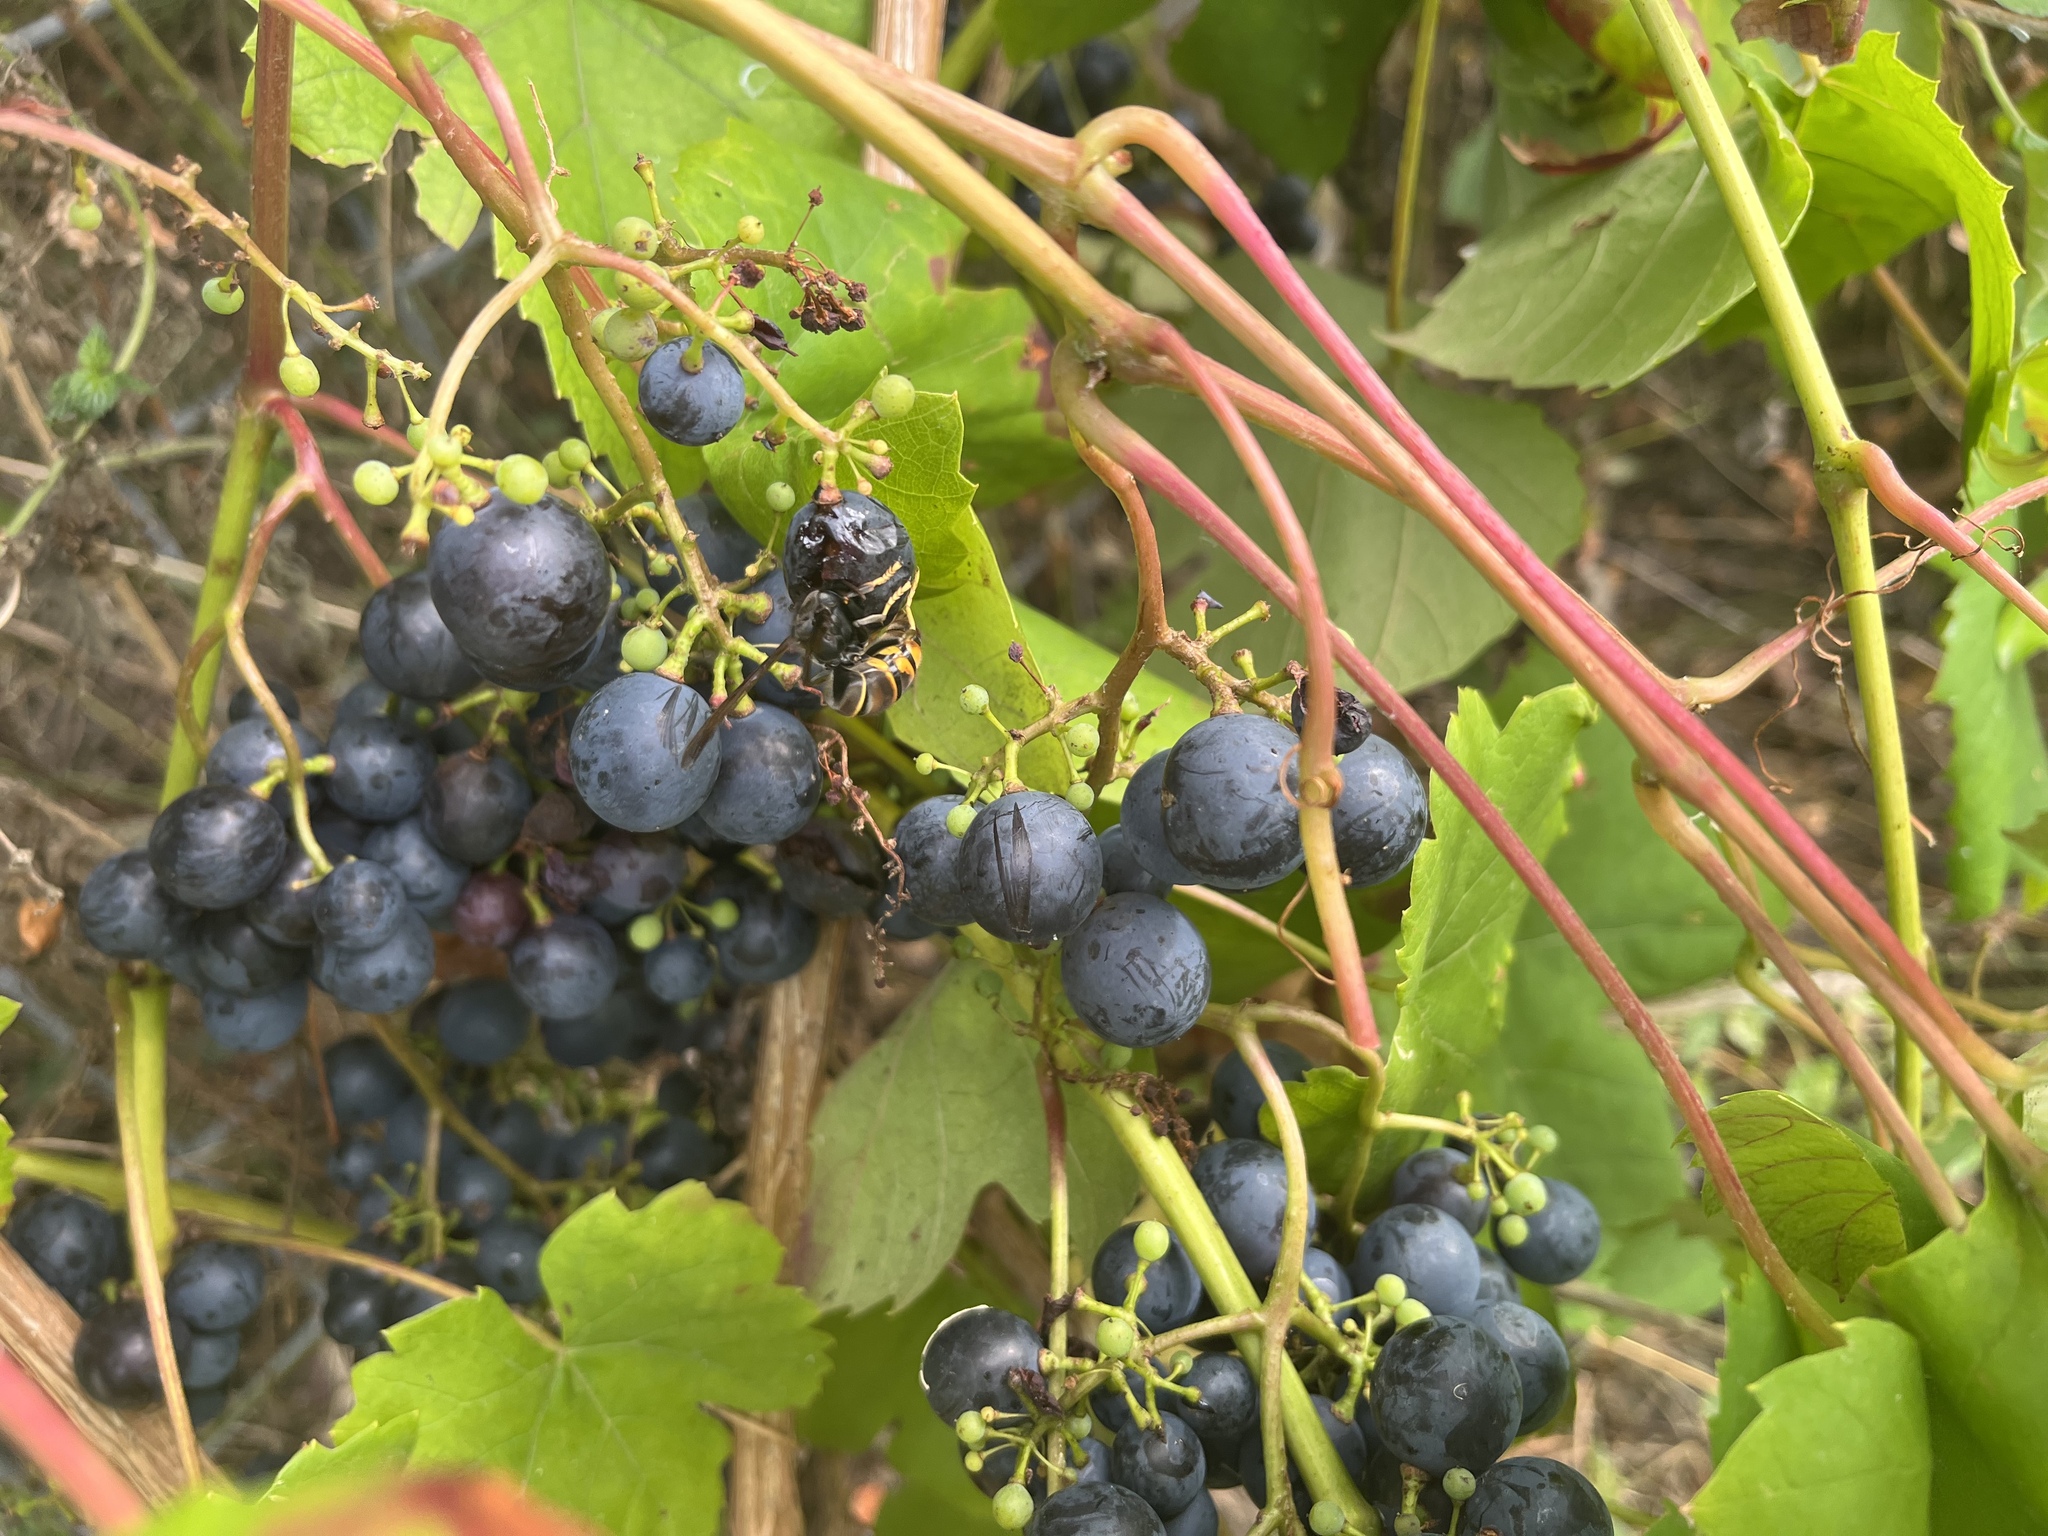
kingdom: Animalia
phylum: Arthropoda
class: Insecta
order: Hymenoptera
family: Vespidae
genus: Vespa
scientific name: Vespa velutina
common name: Asian hornet
